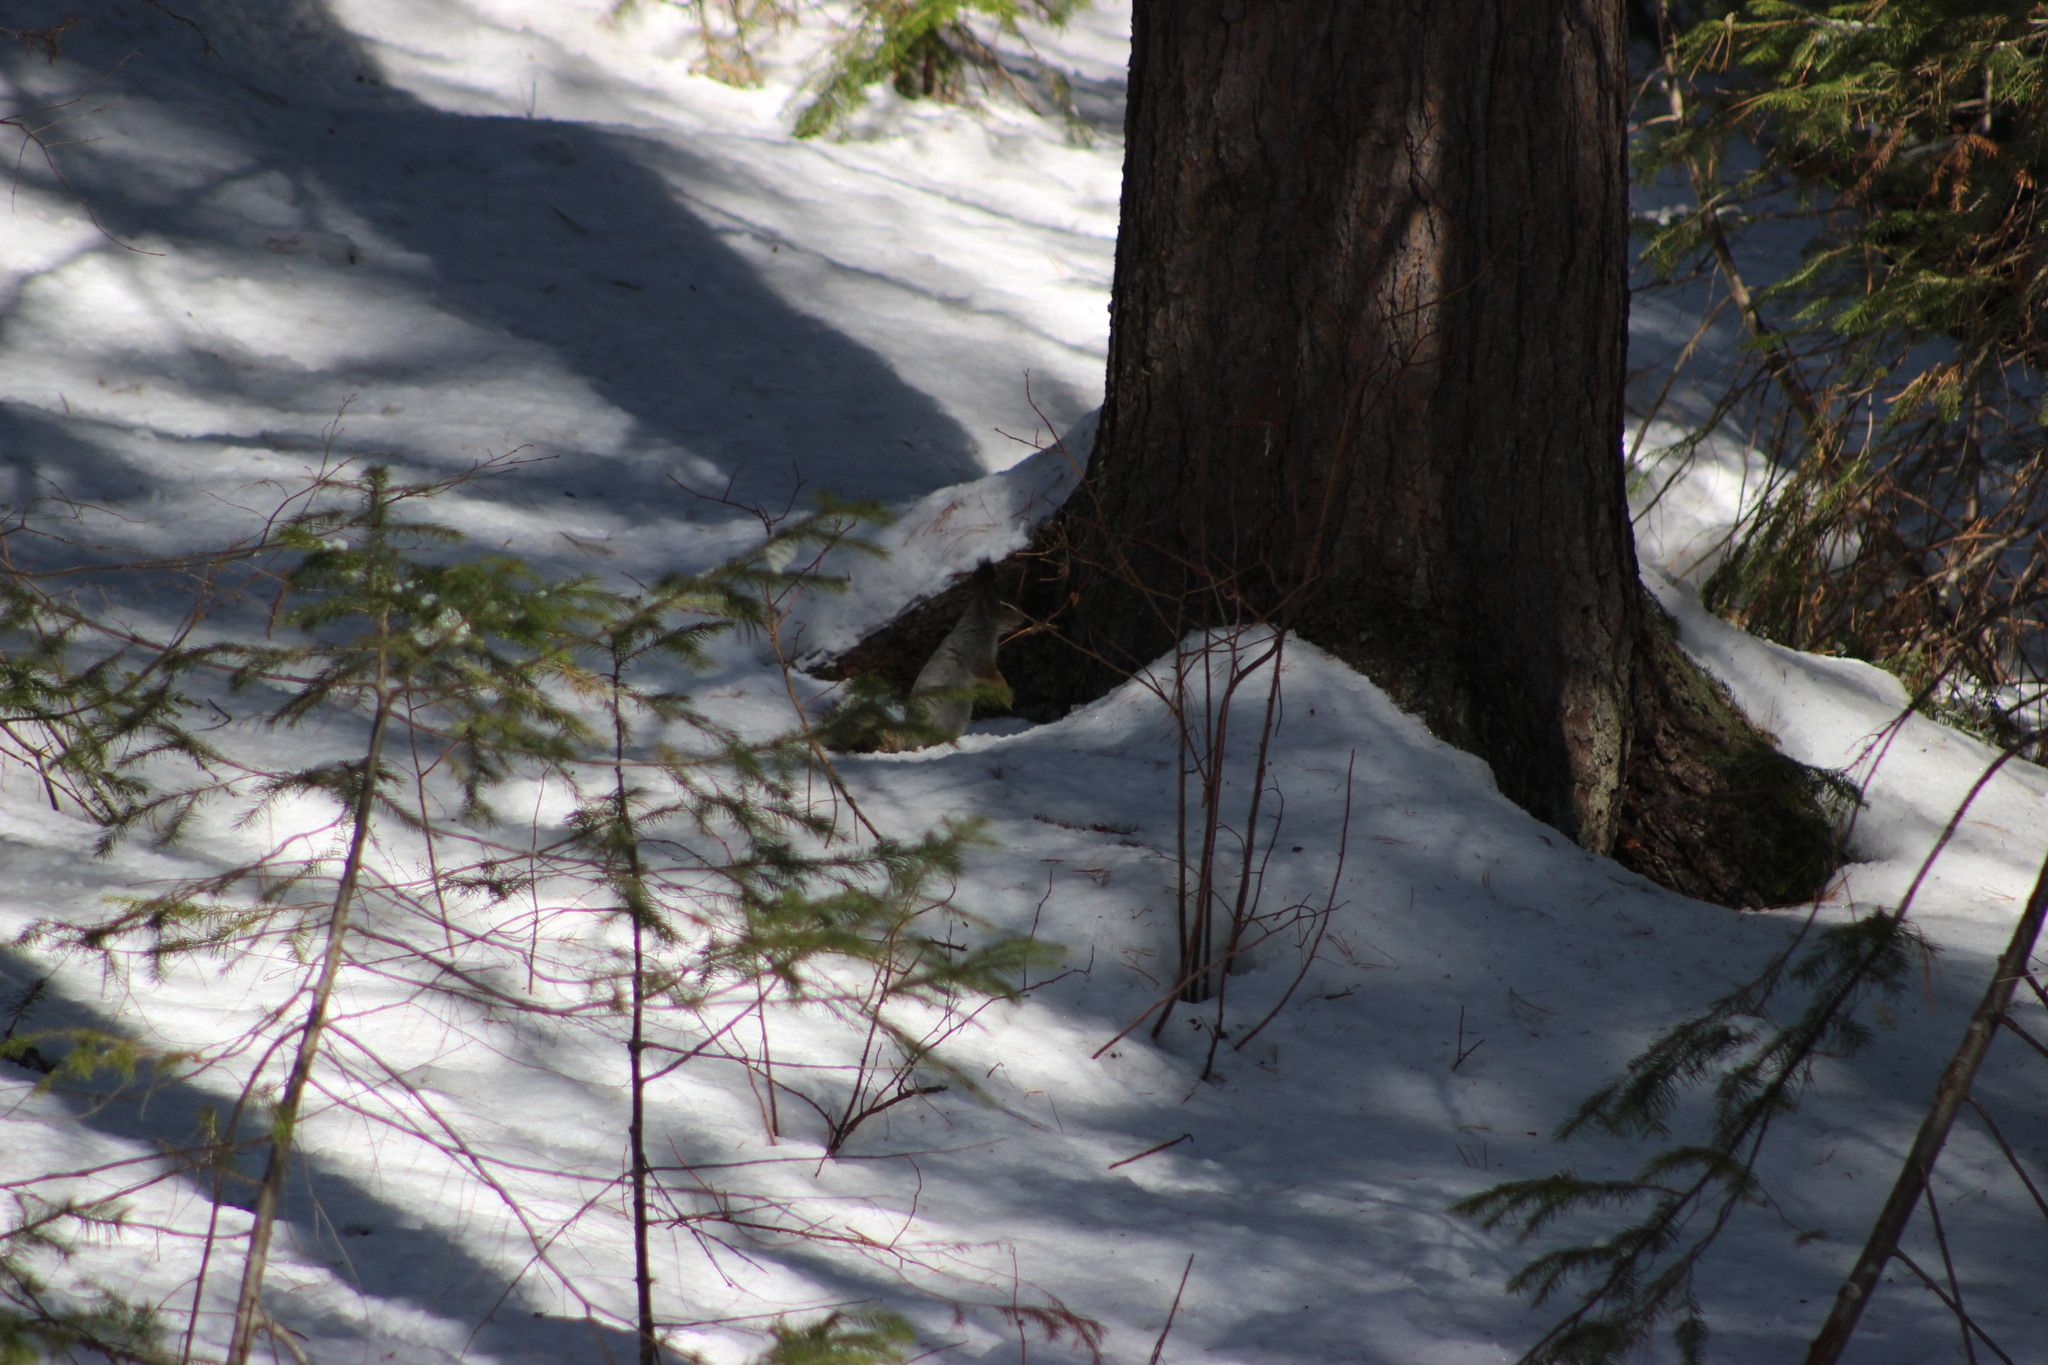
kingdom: Animalia
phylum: Chordata
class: Mammalia
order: Rodentia
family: Sciuridae
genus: Sciurus
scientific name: Sciurus vulgaris
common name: Eurasian red squirrel
